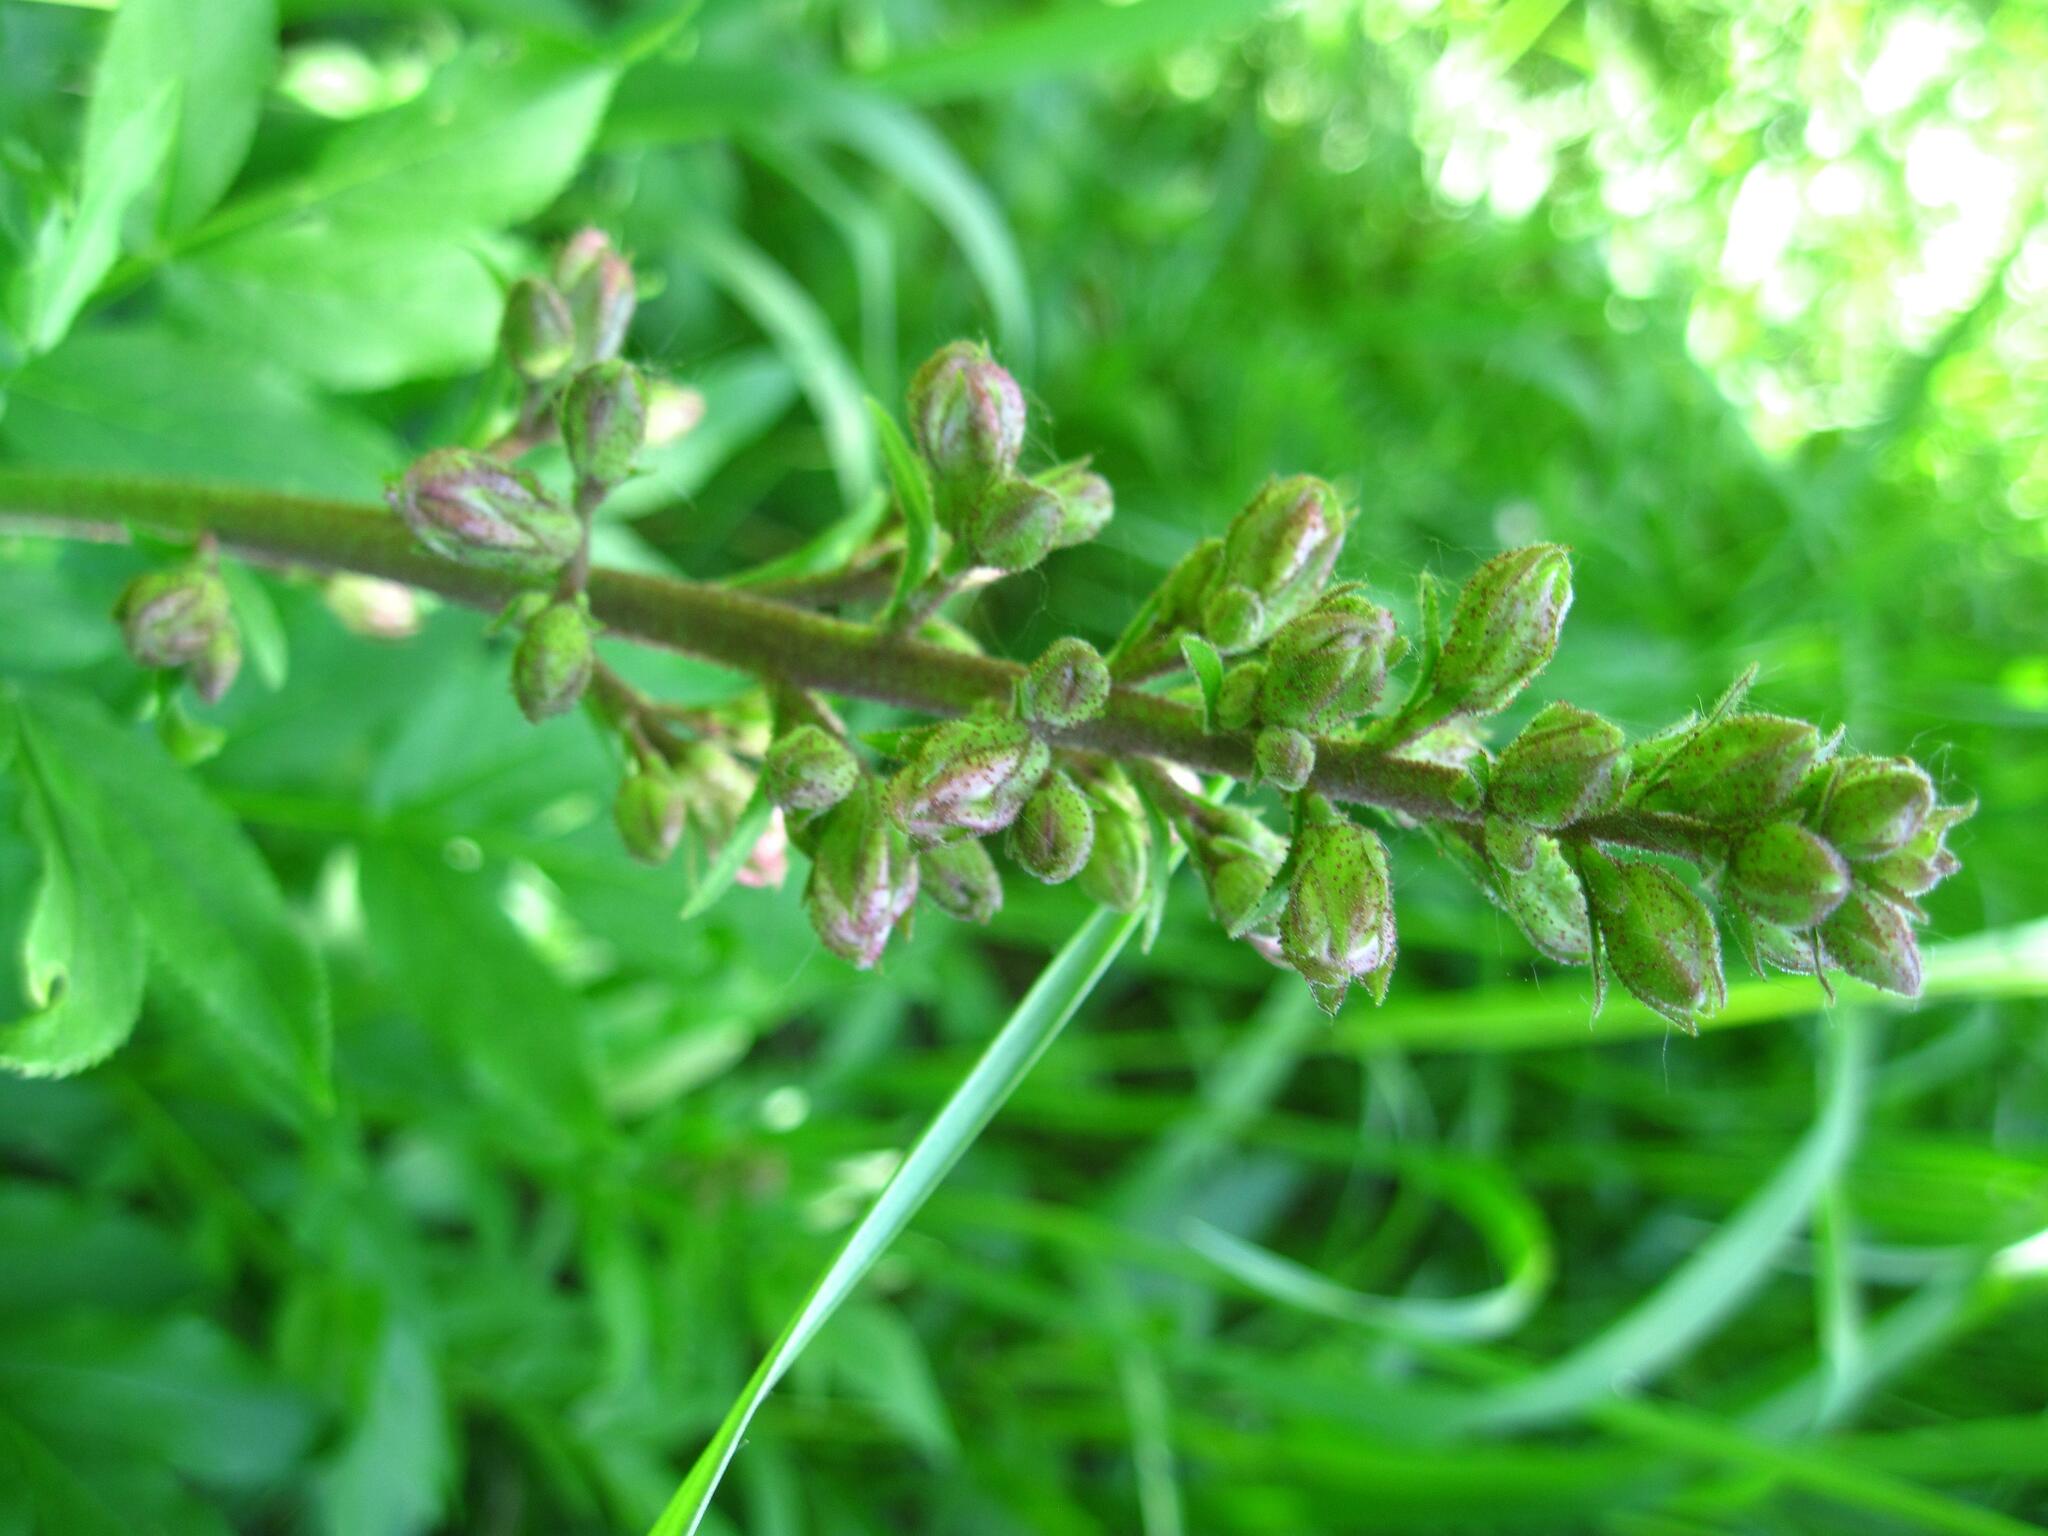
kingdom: Plantae
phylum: Tracheophyta
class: Magnoliopsida
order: Sapindales
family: Rutaceae
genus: Dictamnus
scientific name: Dictamnus albus
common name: Gasplant
